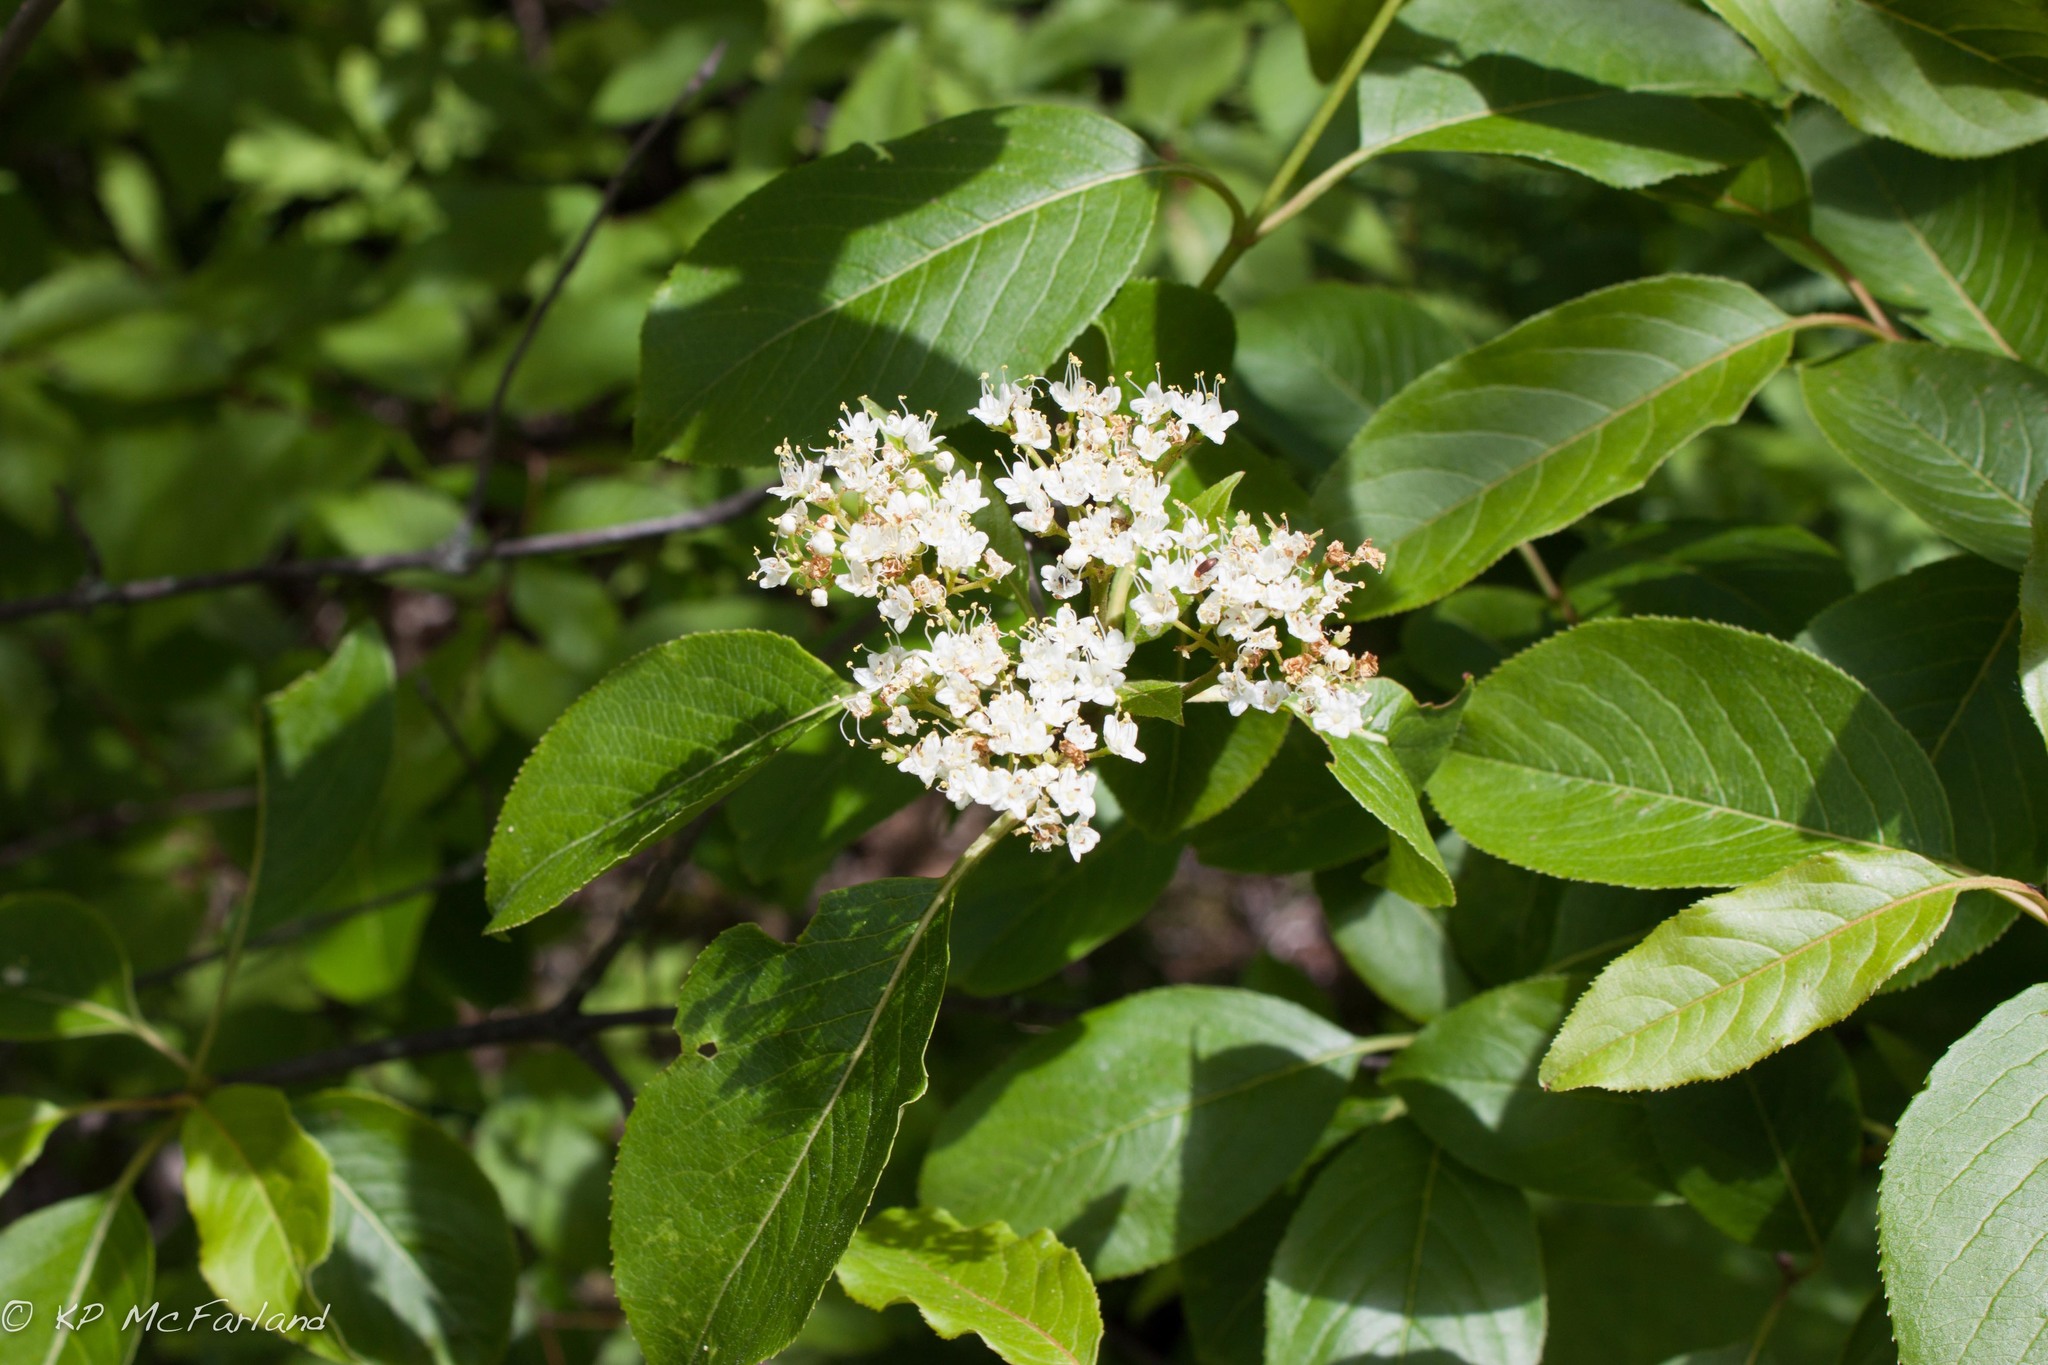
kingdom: Plantae
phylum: Tracheophyta
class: Magnoliopsida
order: Dipsacales
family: Viburnaceae
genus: Viburnum
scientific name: Viburnum lentago
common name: Black haw
